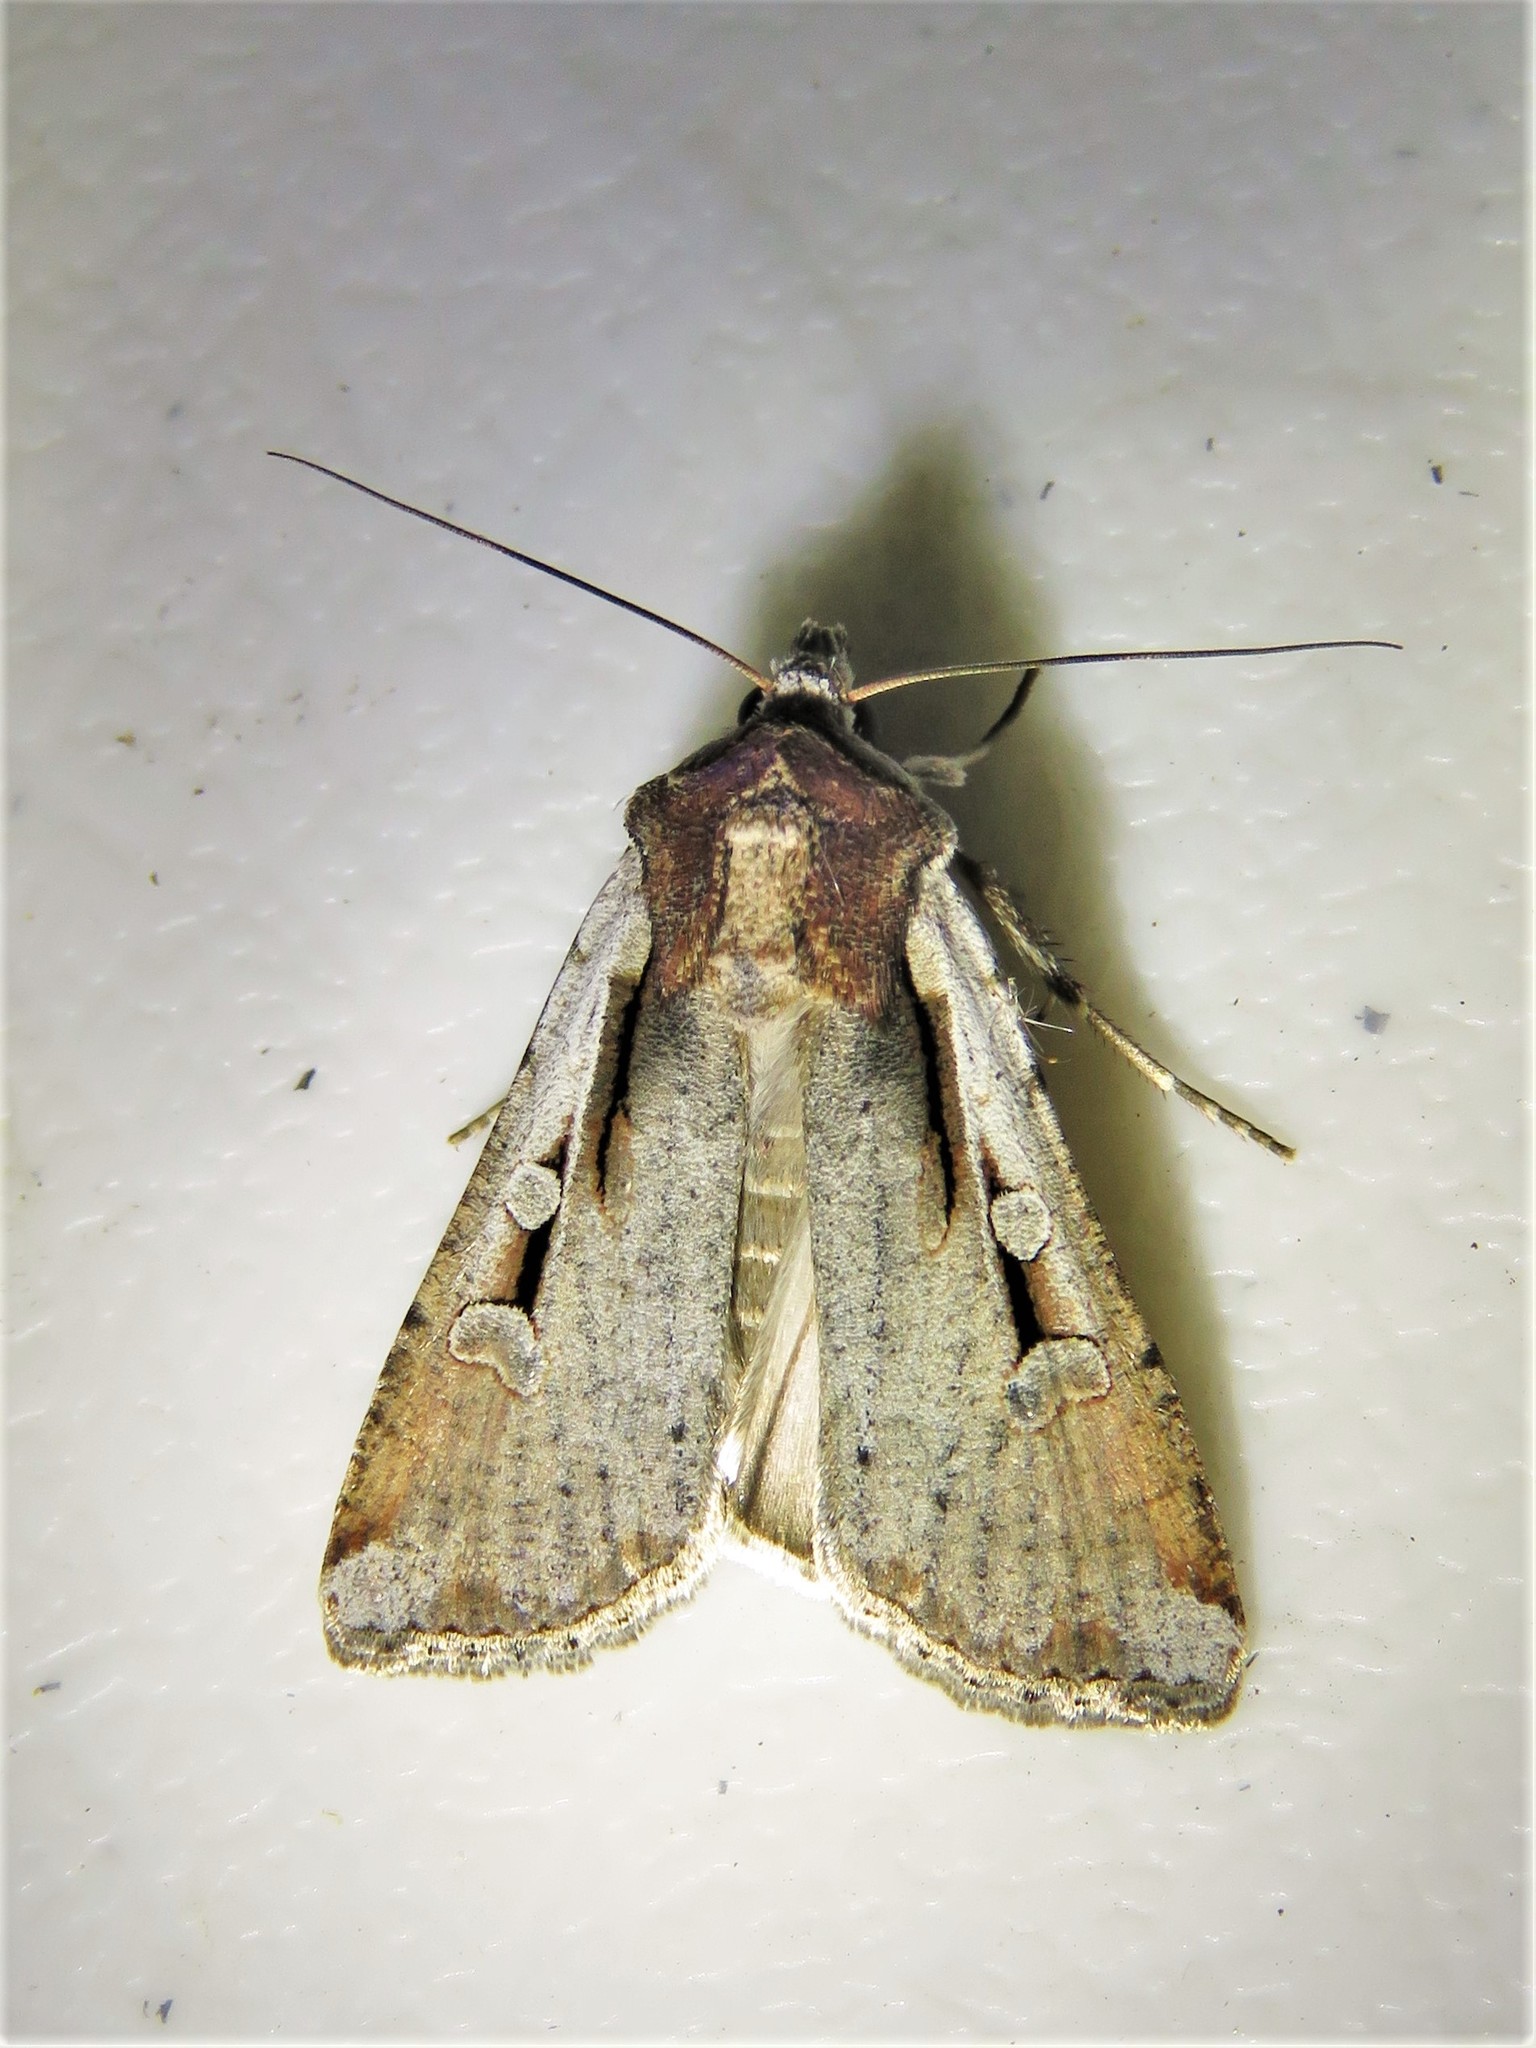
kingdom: Animalia
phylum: Arthropoda
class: Insecta
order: Lepidoptera
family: Noctuidae
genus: Hemieuxoa
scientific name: Hemieuxoa rudens
